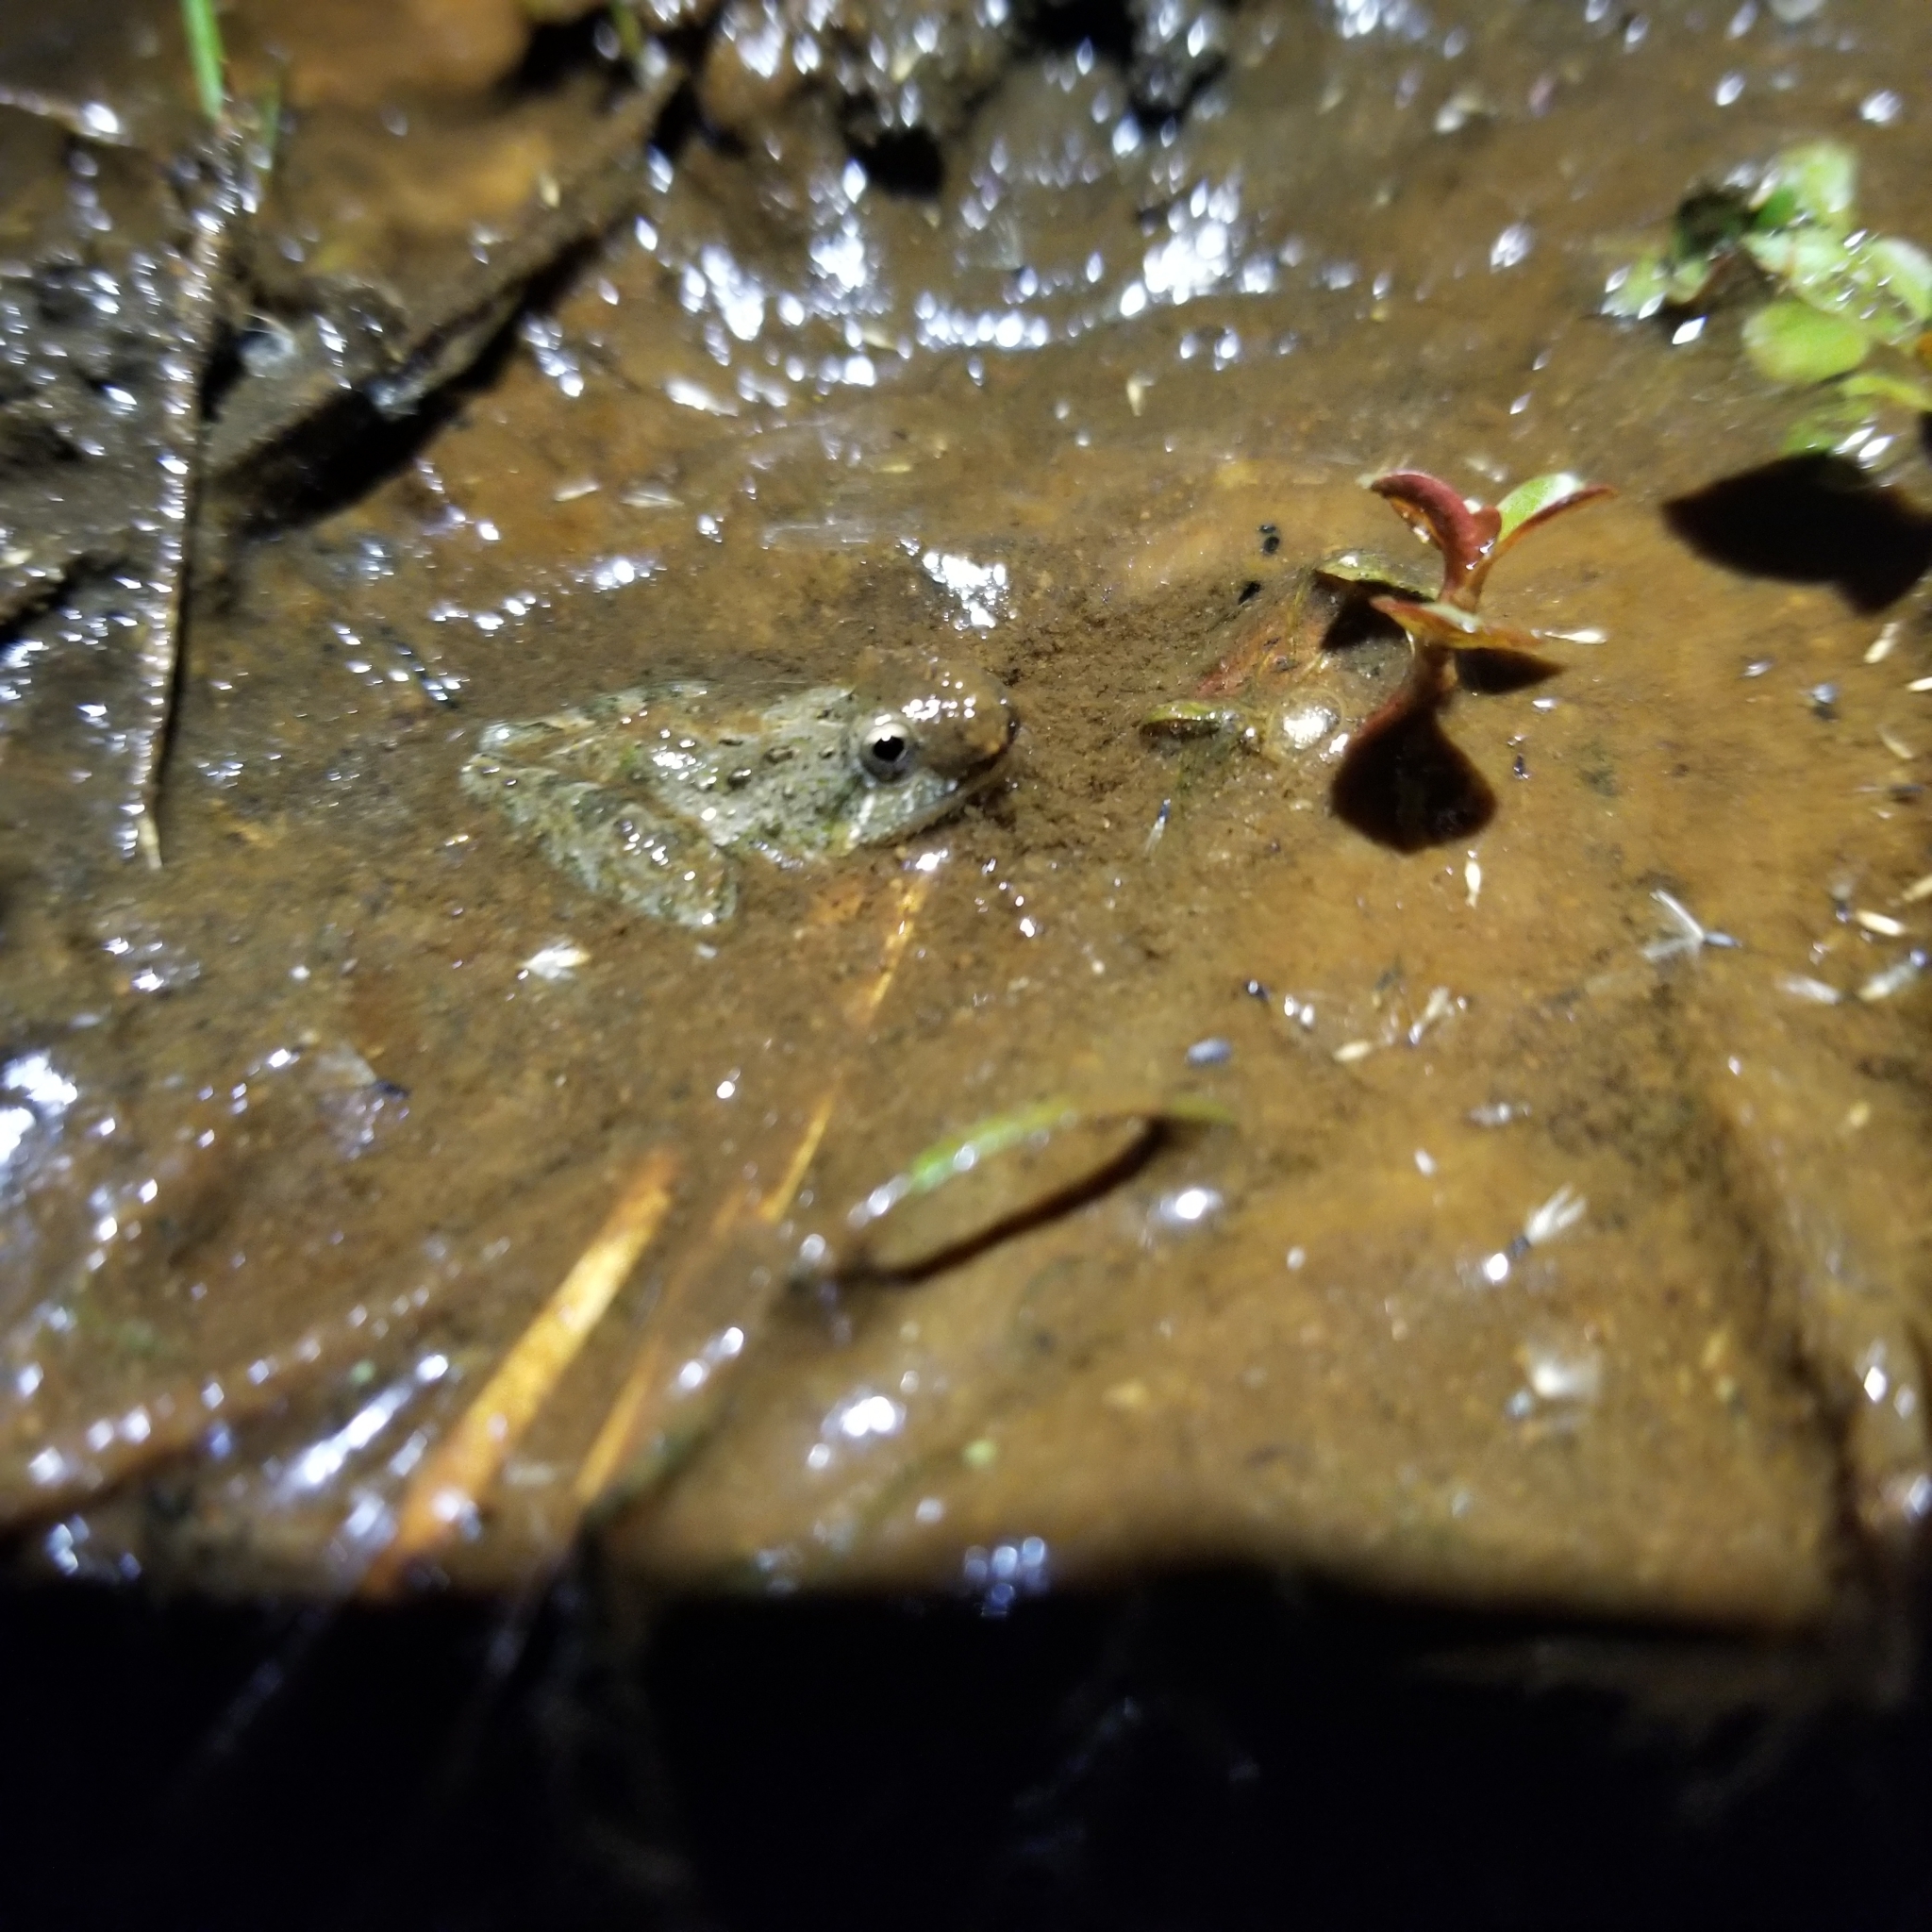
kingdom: Animalia
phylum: Chordata
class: Amphibia
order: Anura
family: Hylidae
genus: Acris
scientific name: Acris gryllus
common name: Southern cricket frog
